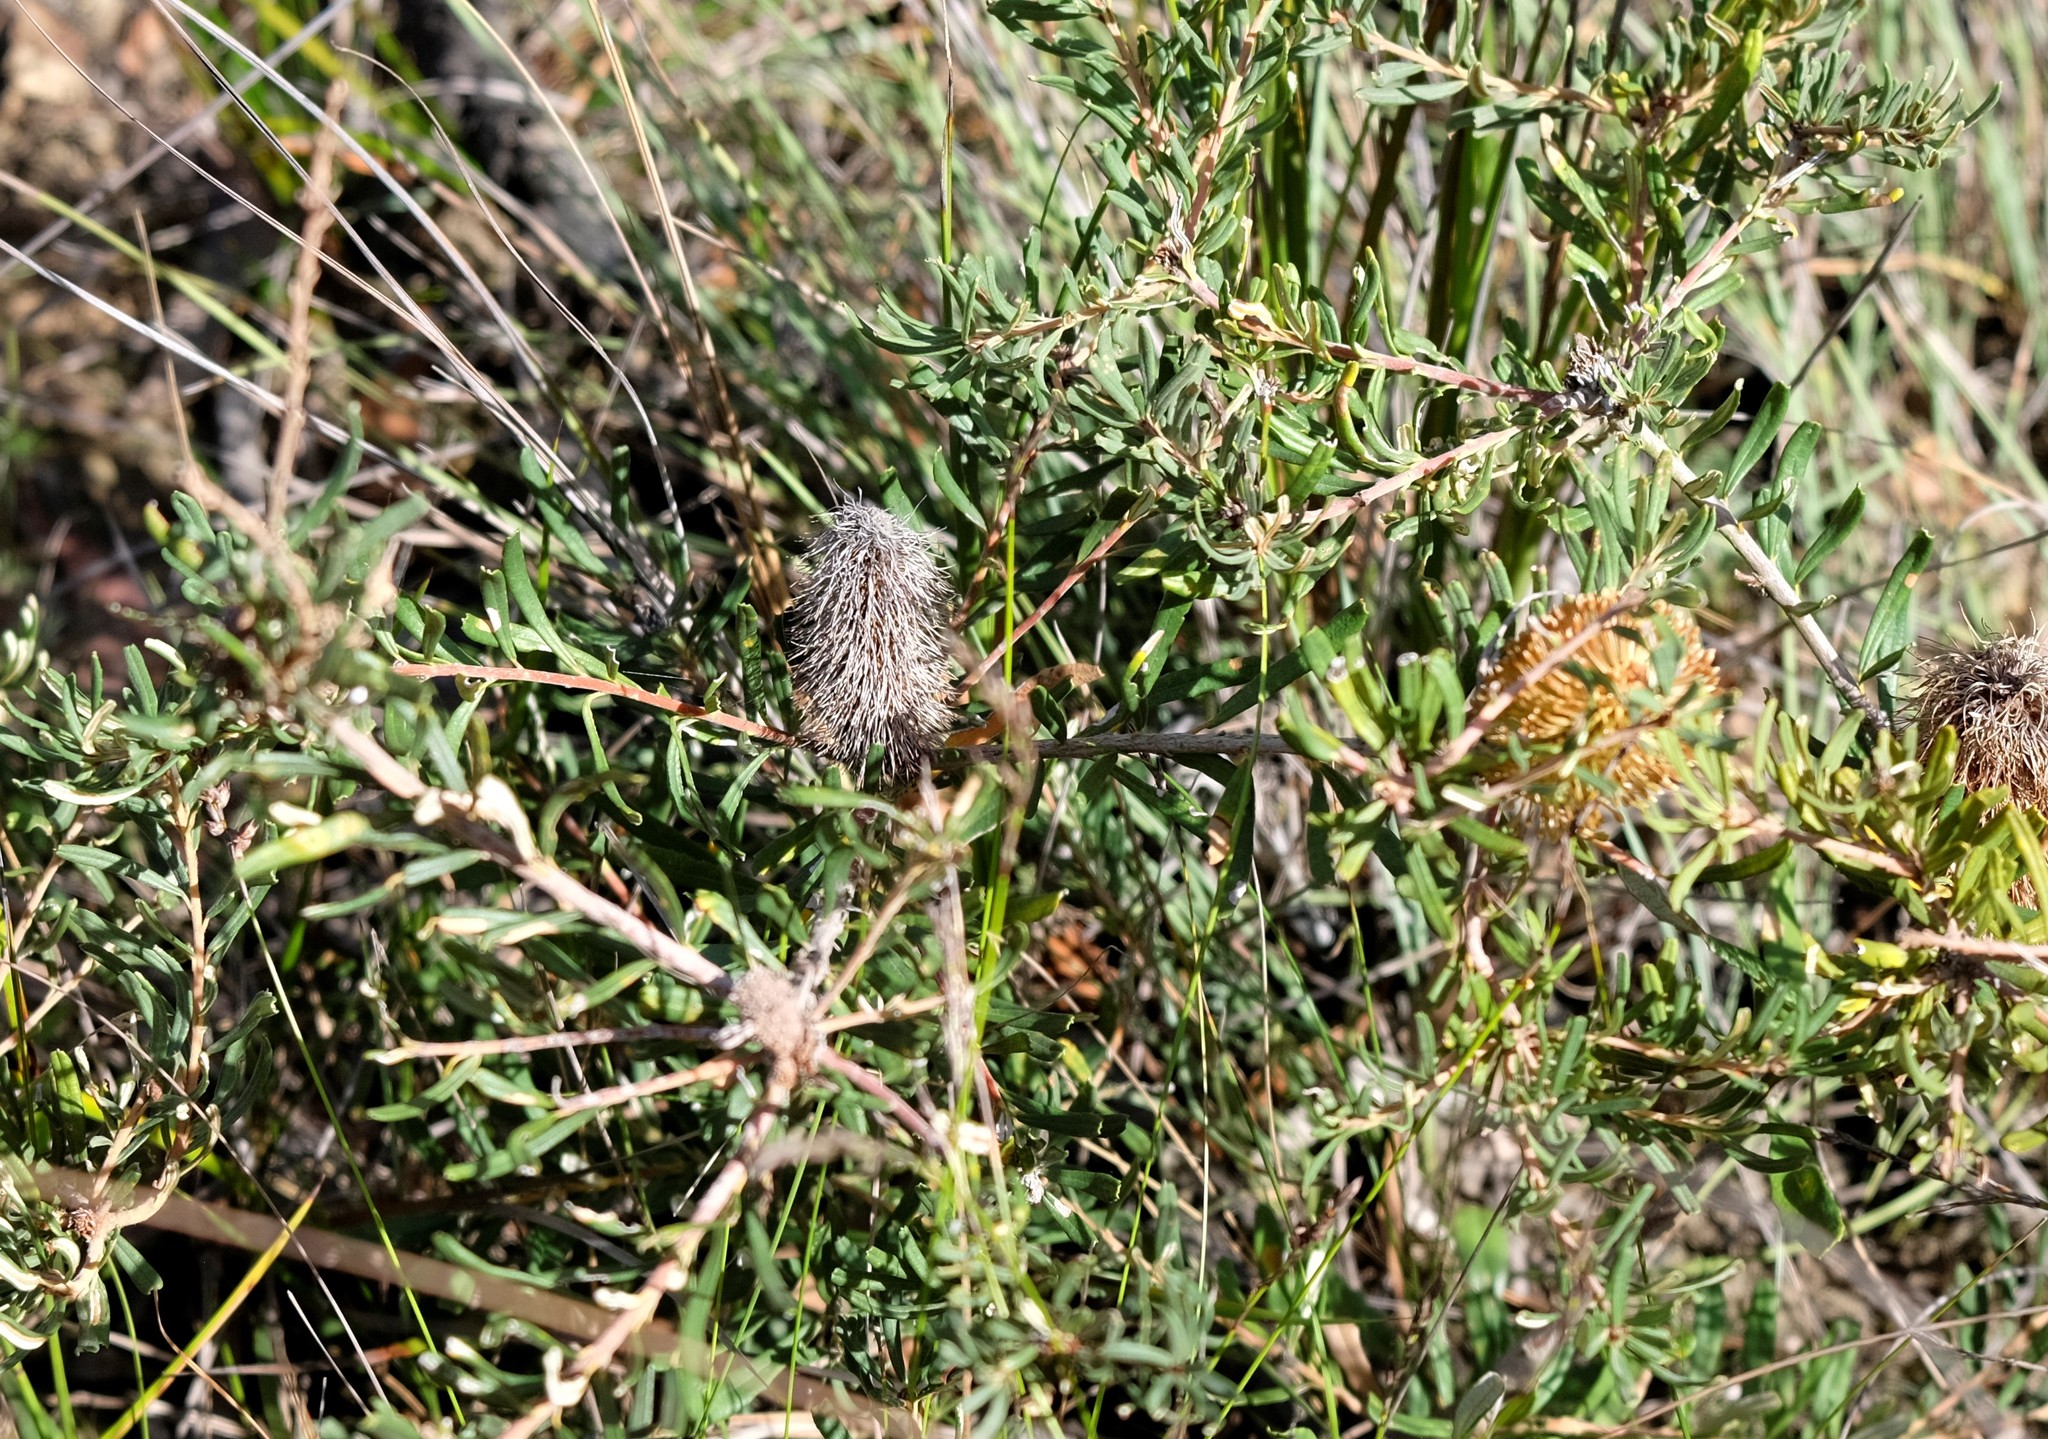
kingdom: Plantae
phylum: Tracheophyta
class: Magnoliopsida
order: Proteales
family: Proteaceae
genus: Banksia
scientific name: Banksia marginata
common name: Silver banksia
